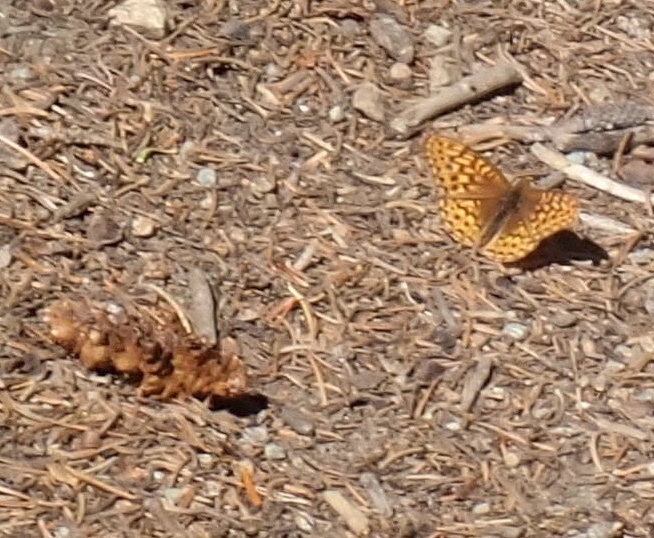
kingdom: Animalia
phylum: Arthropoda
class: Insecta
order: Lepidoptera
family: Nymphalidae
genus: Speyeria
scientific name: Speyeria callippe
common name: Callippe fritillary
